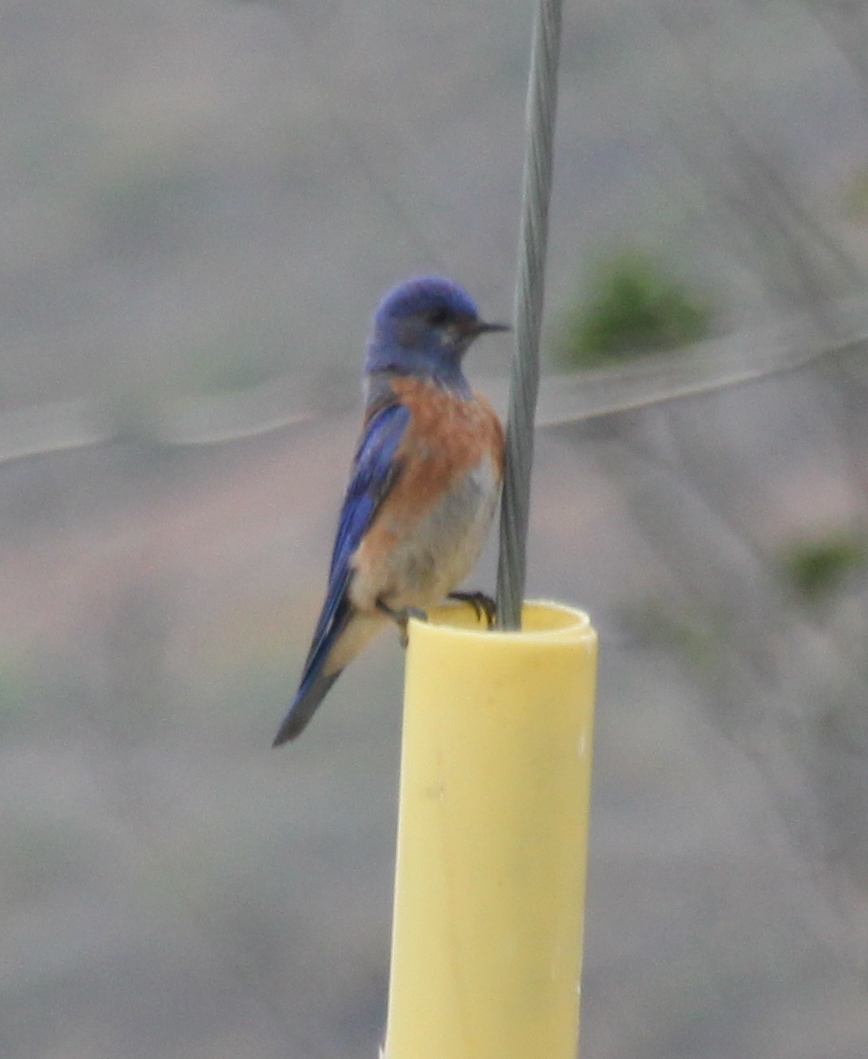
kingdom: Animalia
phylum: Chordata
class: Aves
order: Passeriformes
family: Turdidae
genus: Sialia
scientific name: Sialia mexicana
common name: Western bluebird
